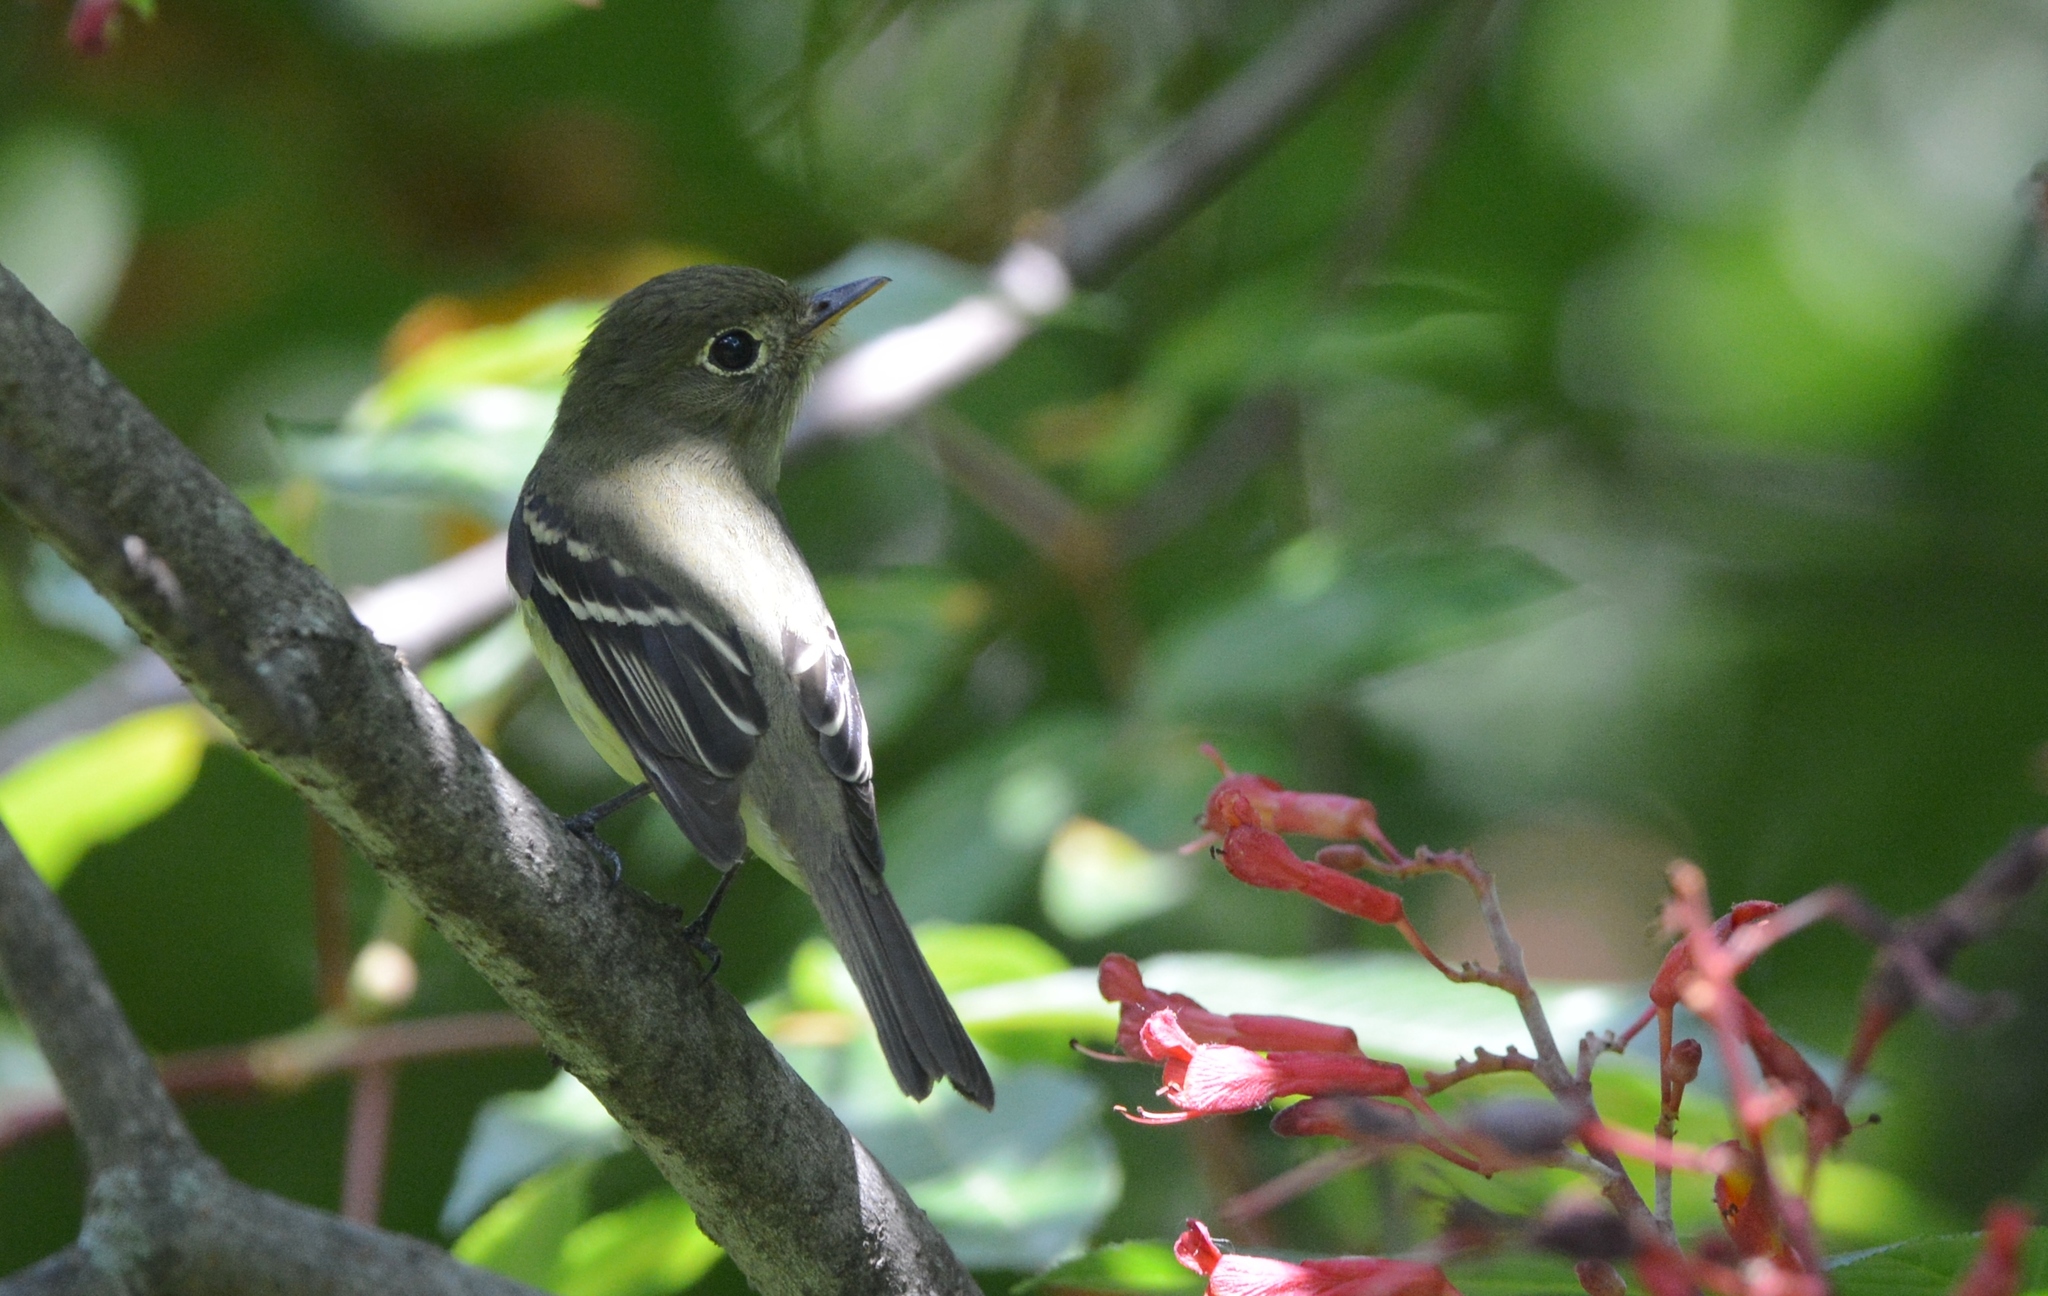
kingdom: Animalia
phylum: Chordata
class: Aves
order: Passeriformes
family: Tyrannidae
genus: Empidonax
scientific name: Empidonax flaviventris
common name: Yellow-bellied flycatcher
